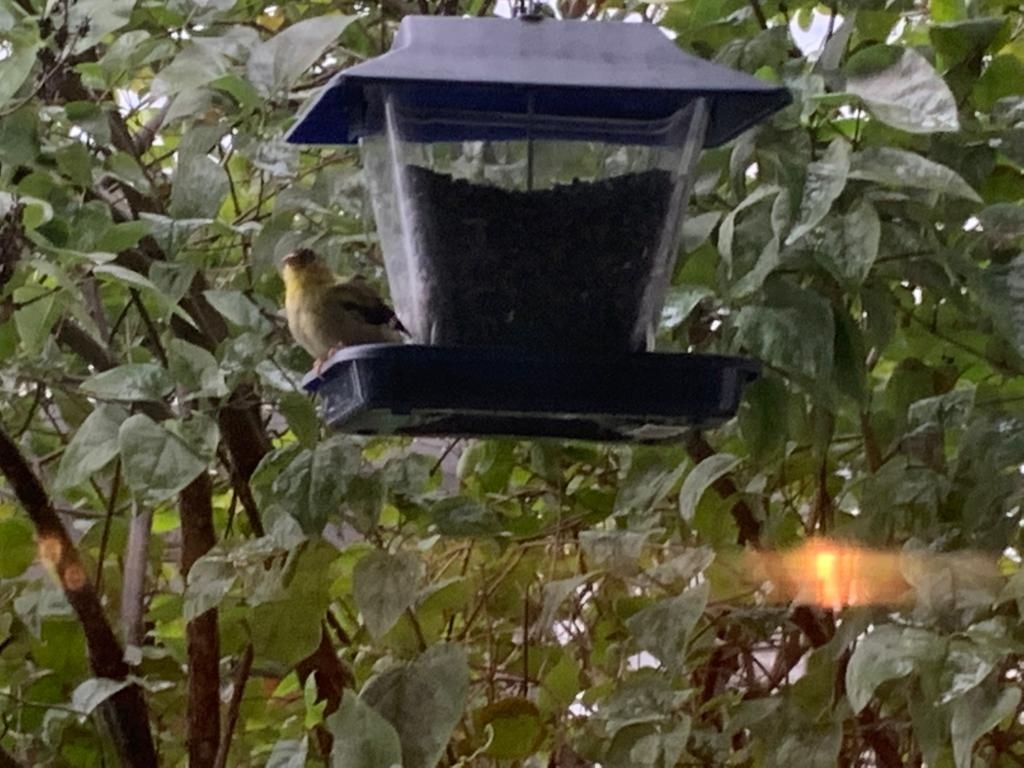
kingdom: Animalia
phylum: Chordata
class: Aves
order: Passeriformes
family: Fringillidae
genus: Spinus
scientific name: Spinus tristis
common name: American goldfinch
